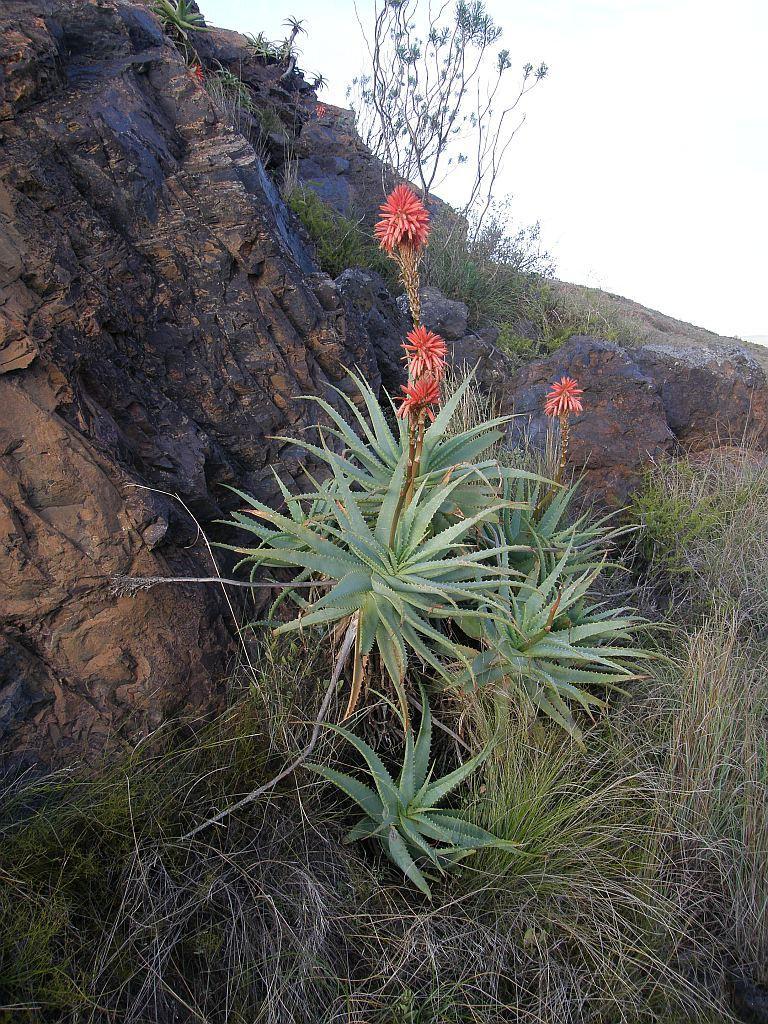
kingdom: Plantae
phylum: Tracheophyta
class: Liliopsida
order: Asparagales
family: Asphodelaceae
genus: Aloe
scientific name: Aloe arborescens
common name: Candelabra aloe
